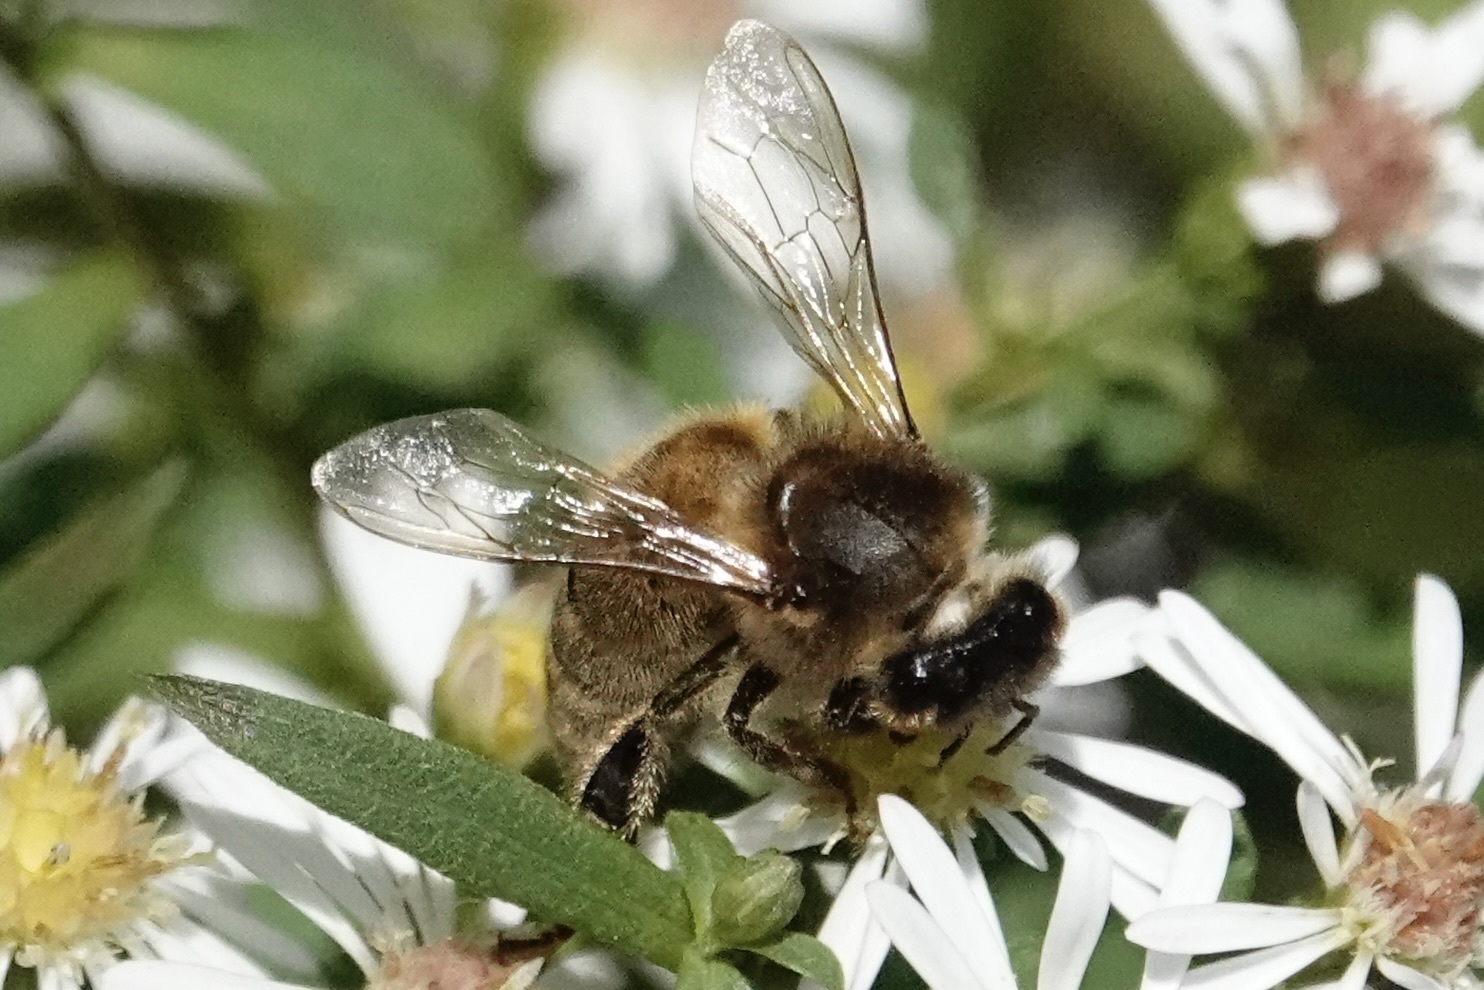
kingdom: Animalia
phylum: Arthropoda
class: Insecta
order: Hymenoptera
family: Apidae
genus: Apis
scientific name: Apis mellifera
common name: Honey bee
